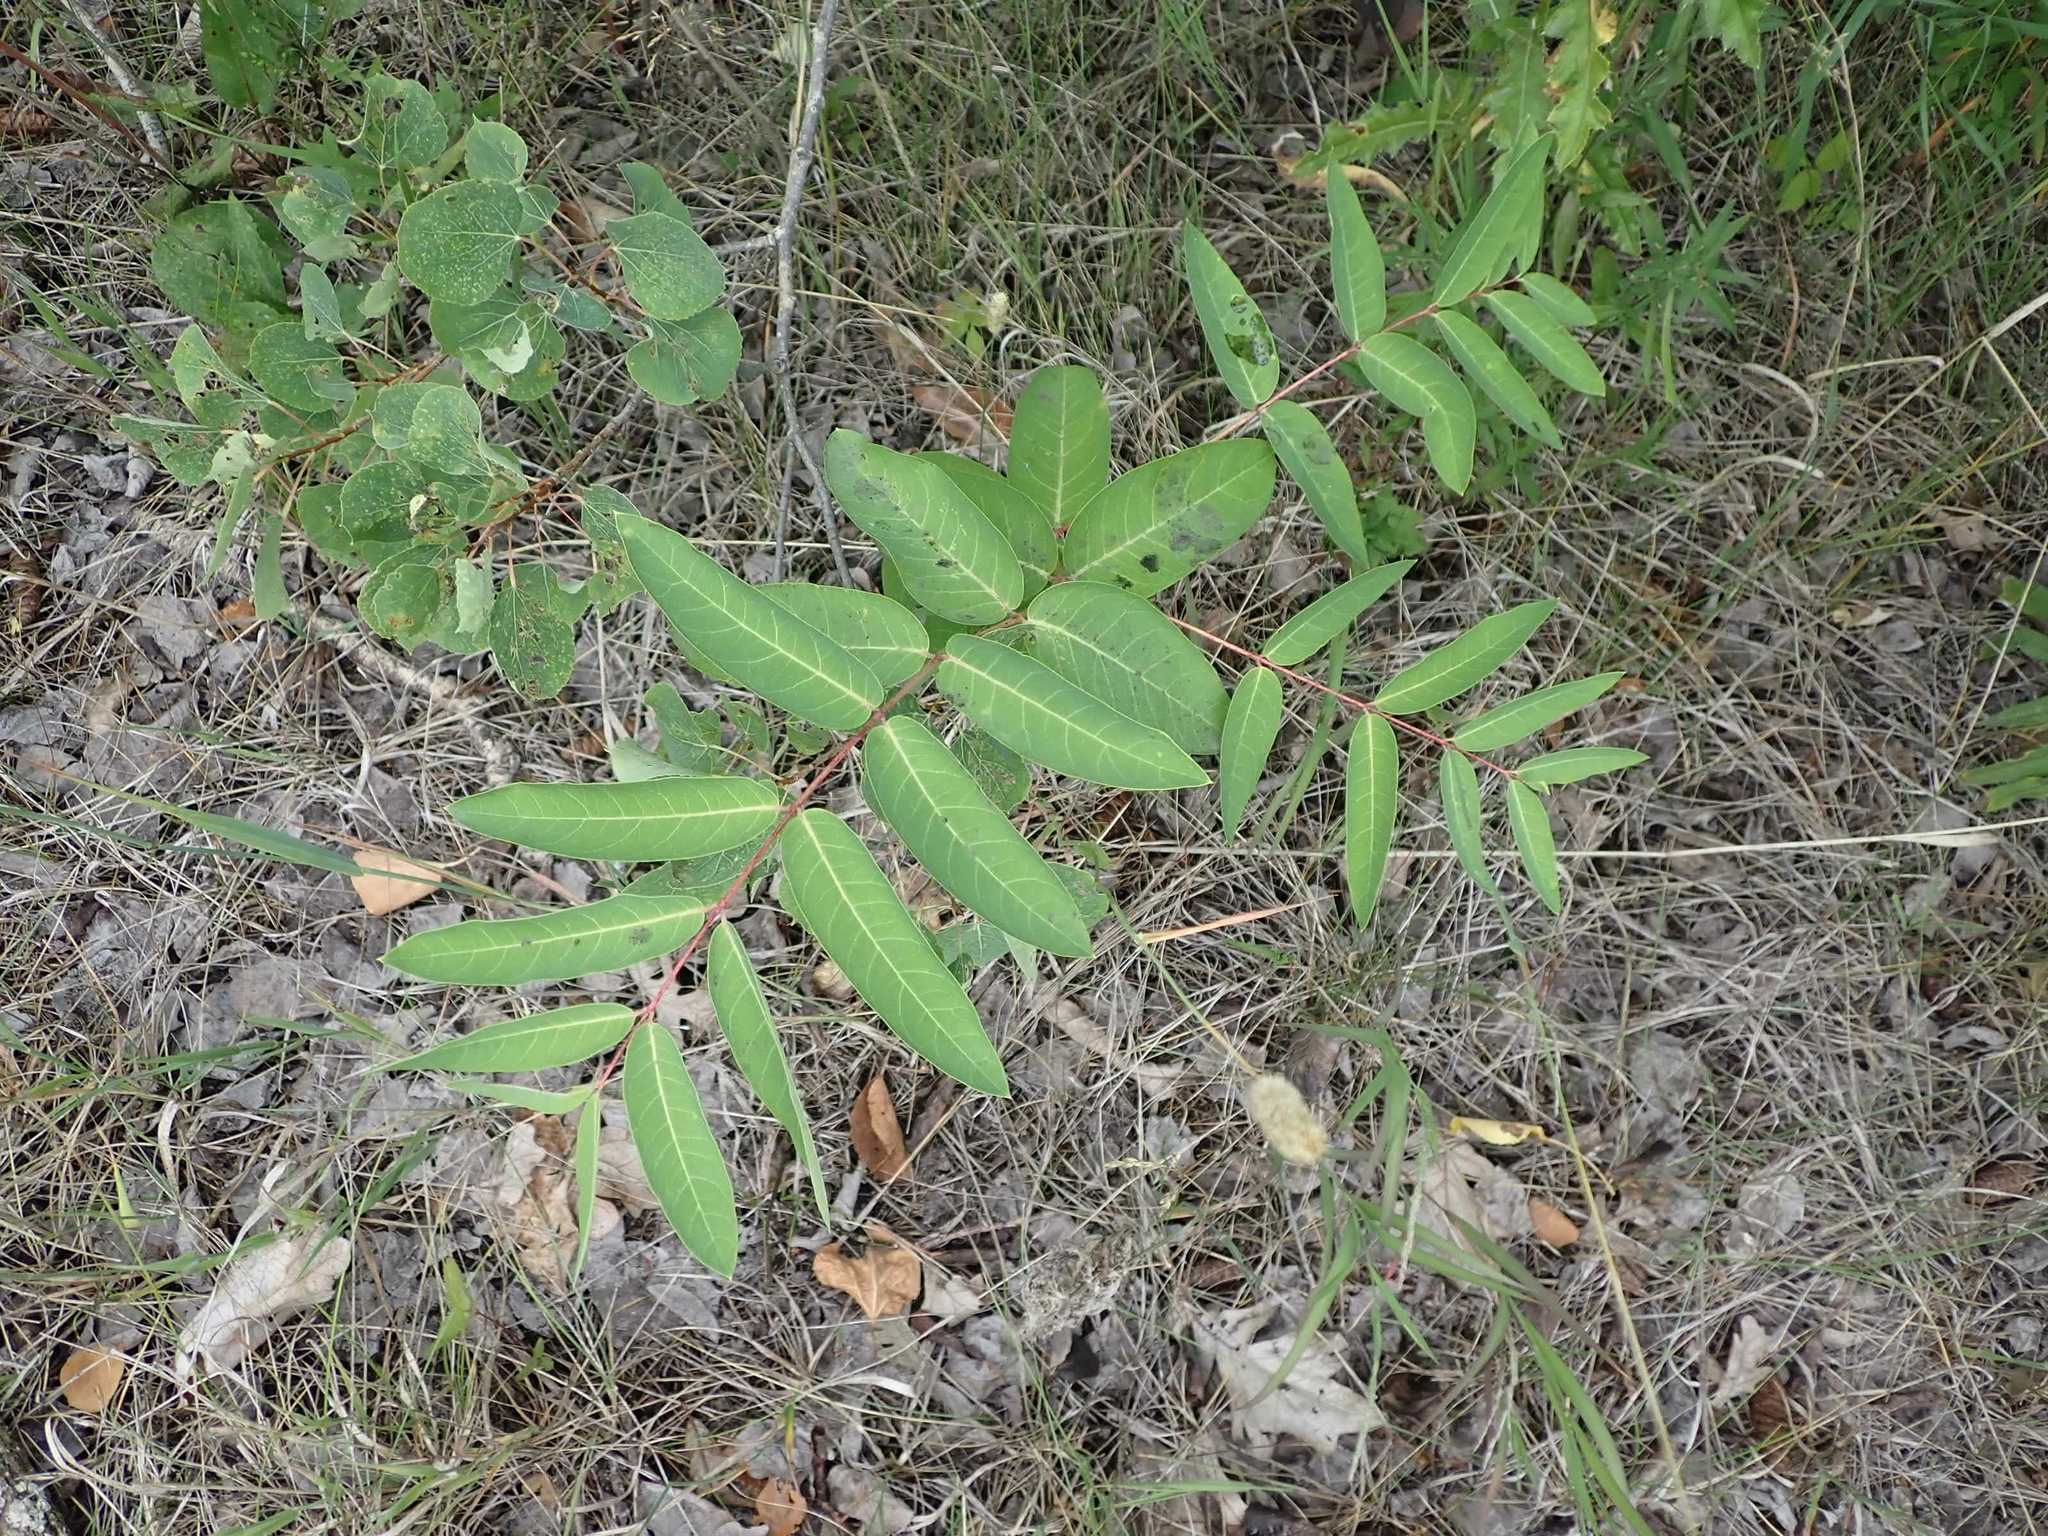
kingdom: Plantae
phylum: Tracheophyta
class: Magnoliopsida
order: Gentianales
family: Apocynaceae
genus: Apocynum
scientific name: Apocynum cannabinum
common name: Hemp dogbane
